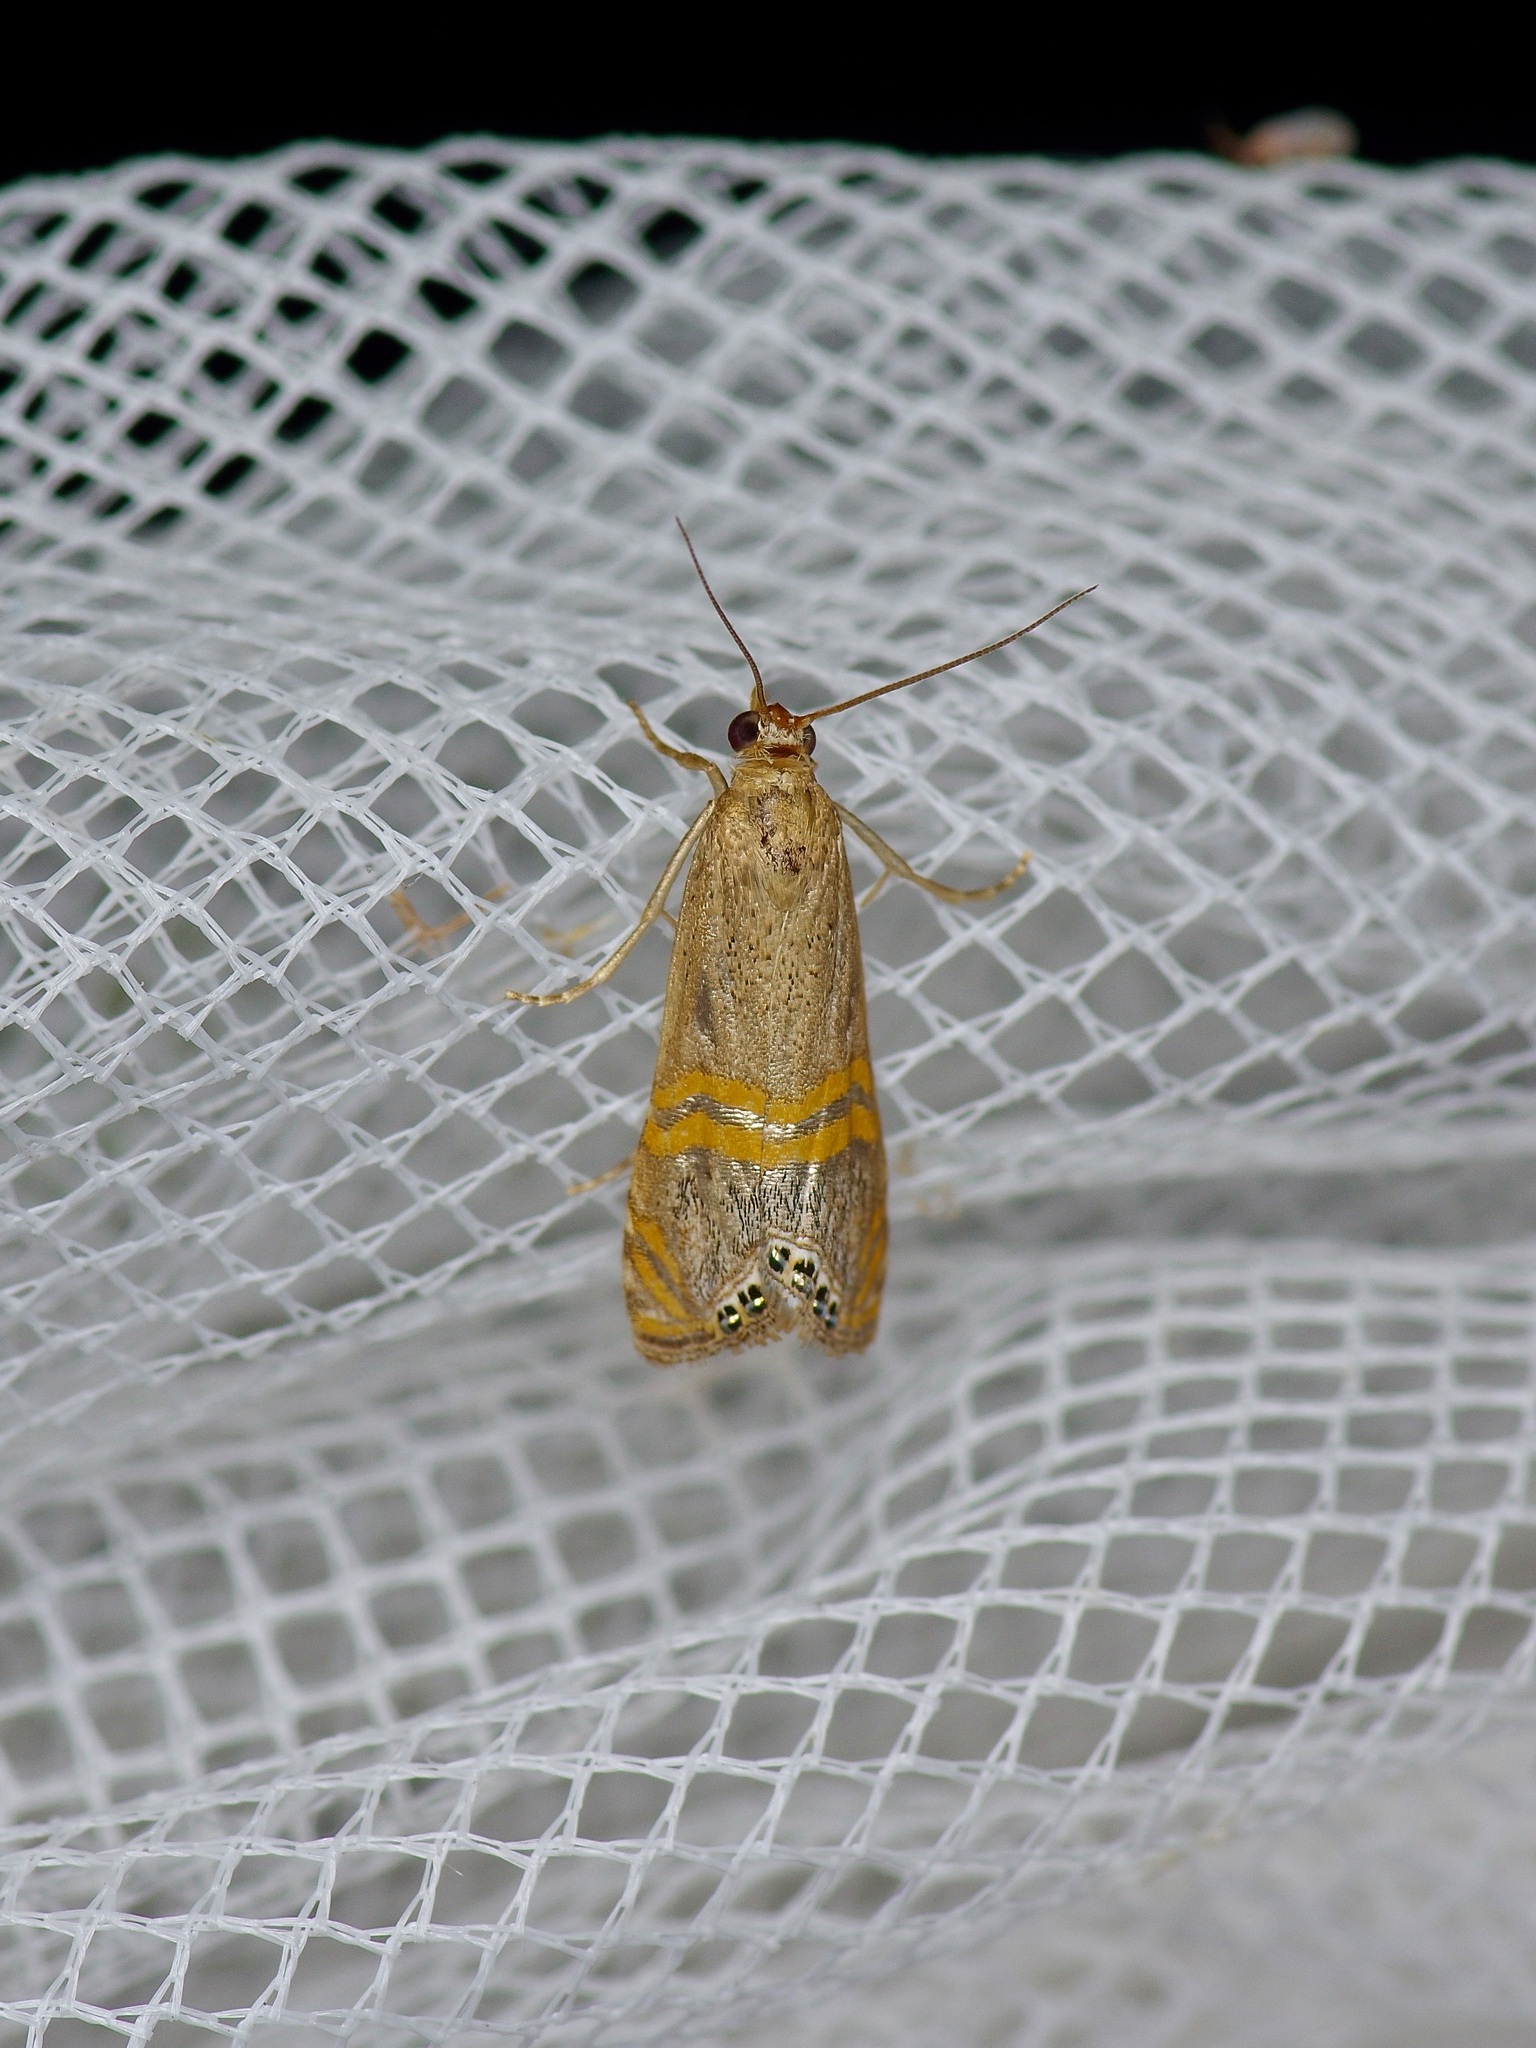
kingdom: Animalia
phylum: Arthropoda
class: Insecta
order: Lepidoptera
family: Crambidae
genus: Euchromius
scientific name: Euchromius ocellea
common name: Necklace veneer moth
